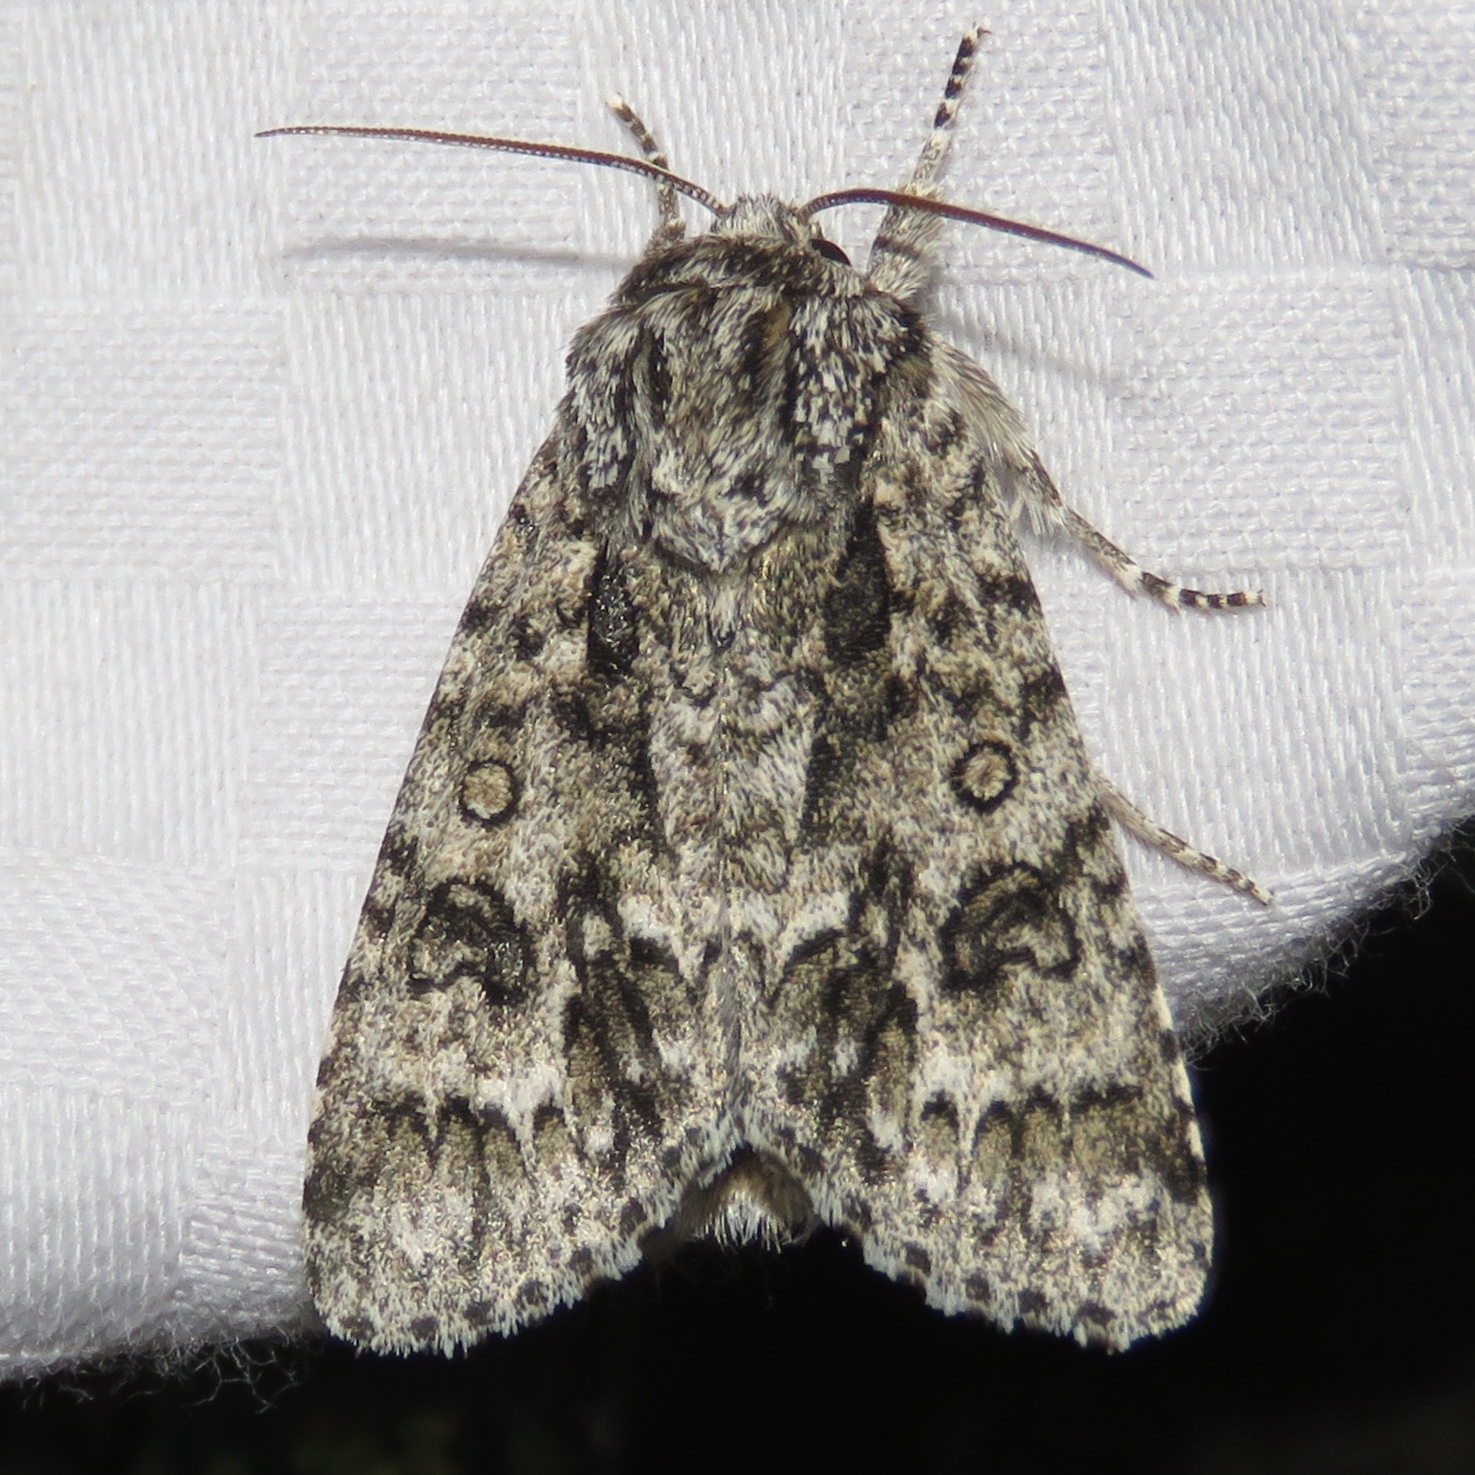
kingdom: Animalia
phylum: Arthropoda
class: Insecta
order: Lepidoptera
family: Noctuidae
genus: Acronicta
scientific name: Acronicta impressa
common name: Impressed dagger
